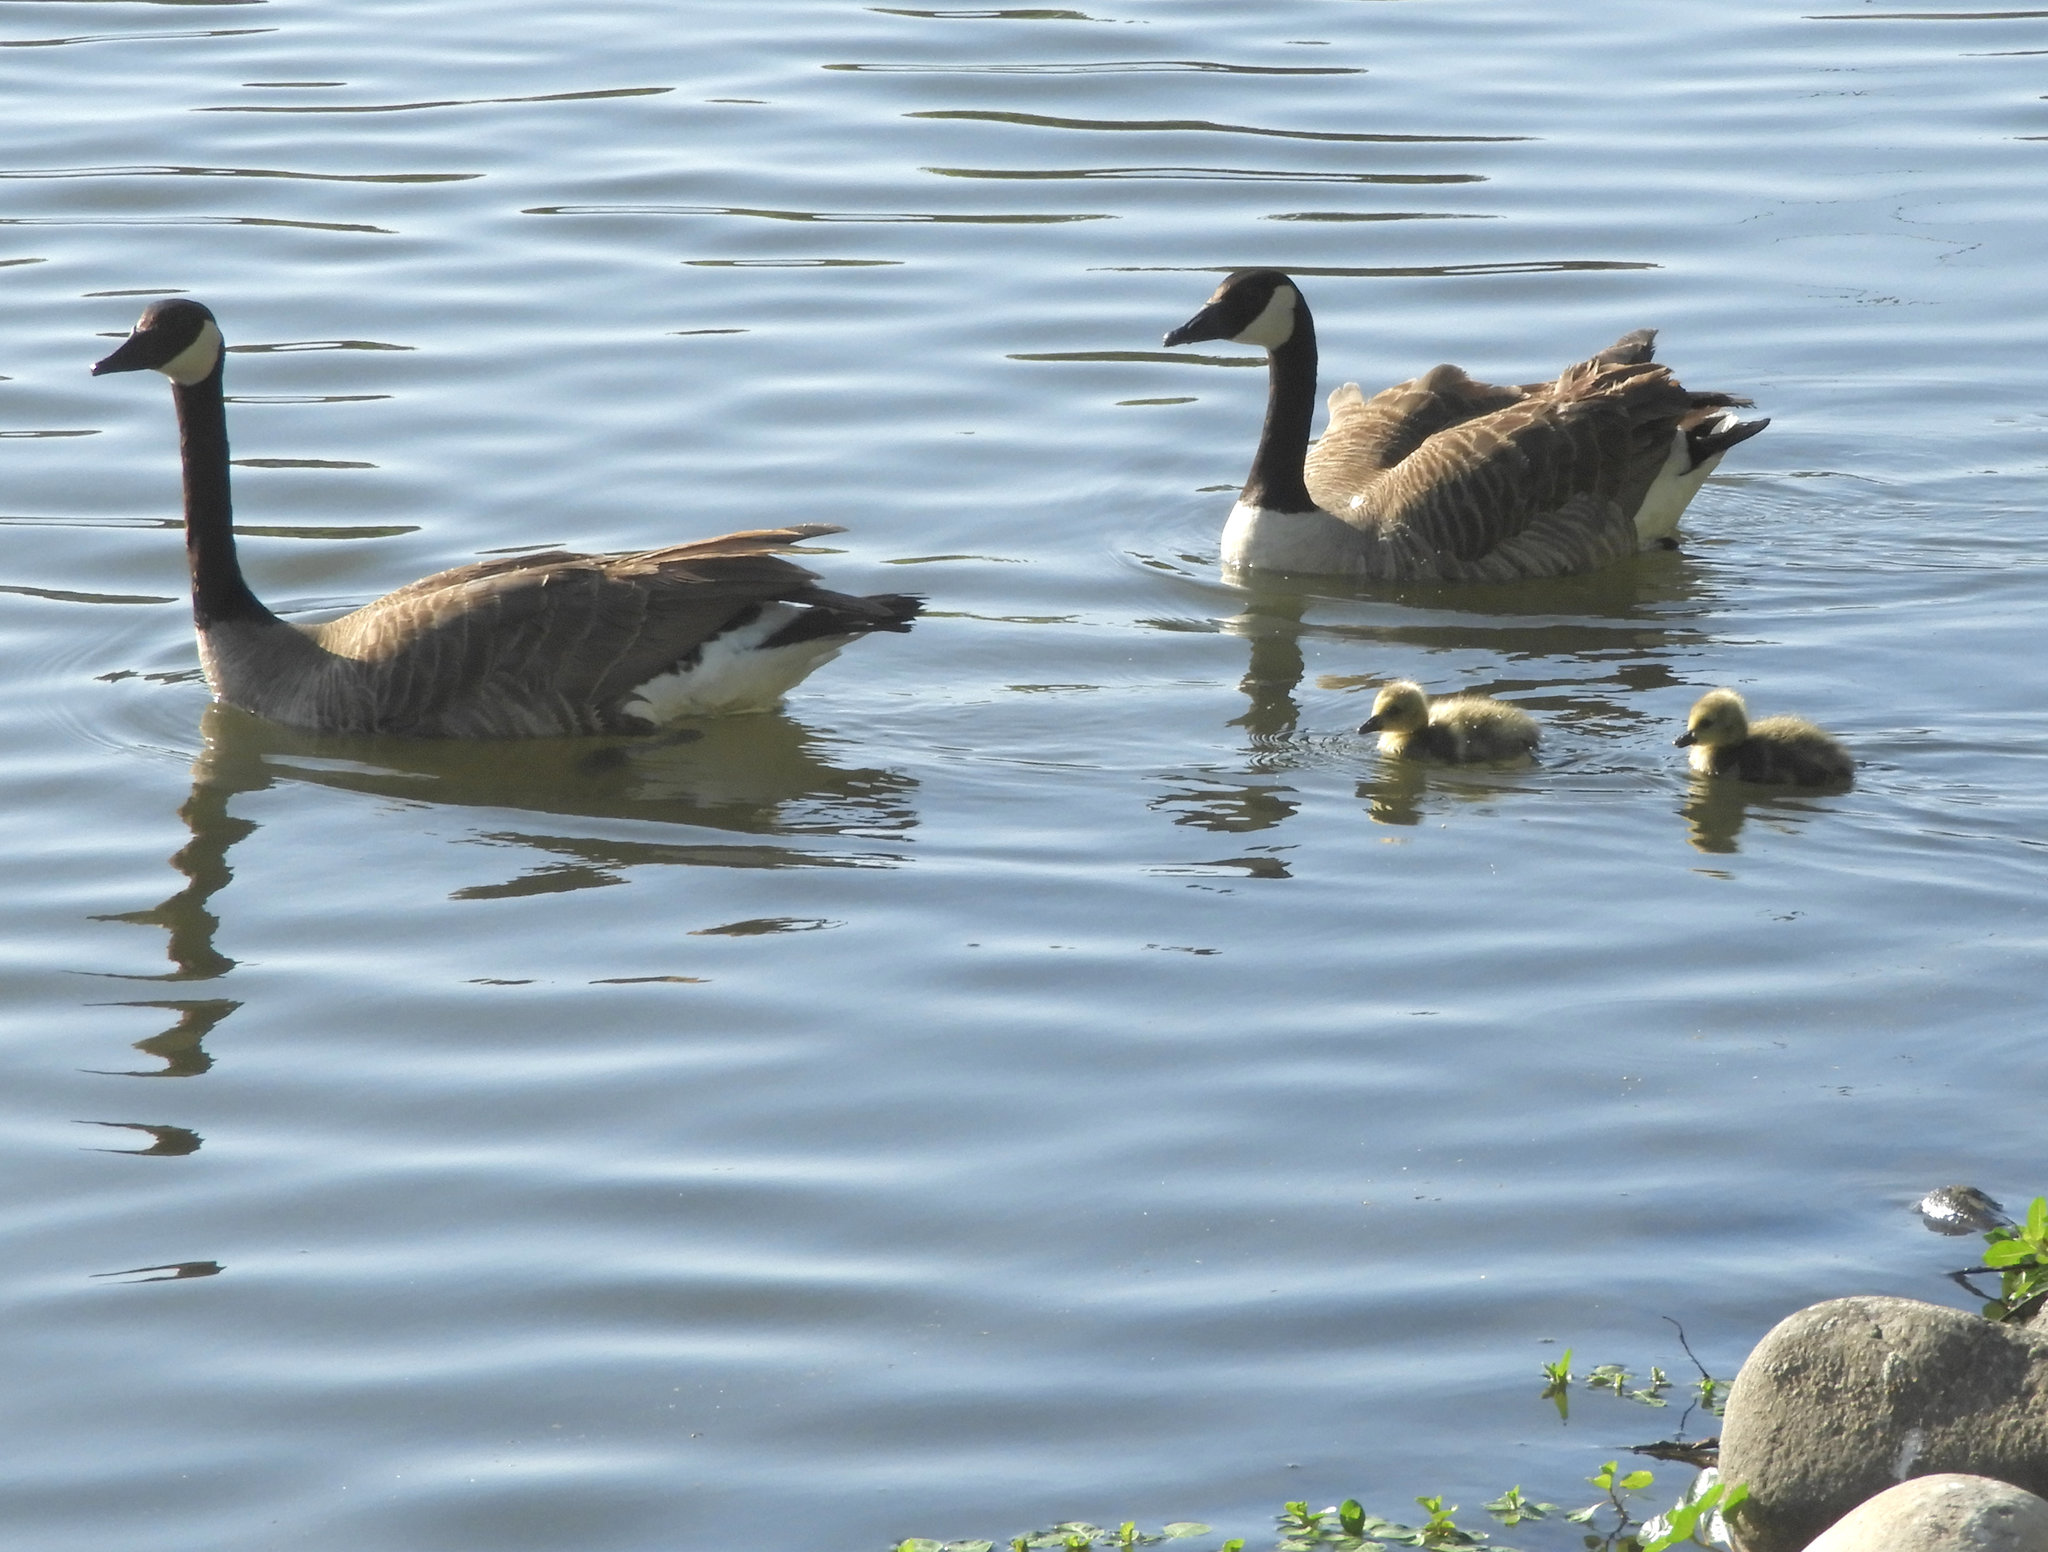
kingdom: Animalia
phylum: Chordata
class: Aves
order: Anseriformes
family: Anatidae
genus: Branta
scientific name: Branta canadensis
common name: Canada goose
